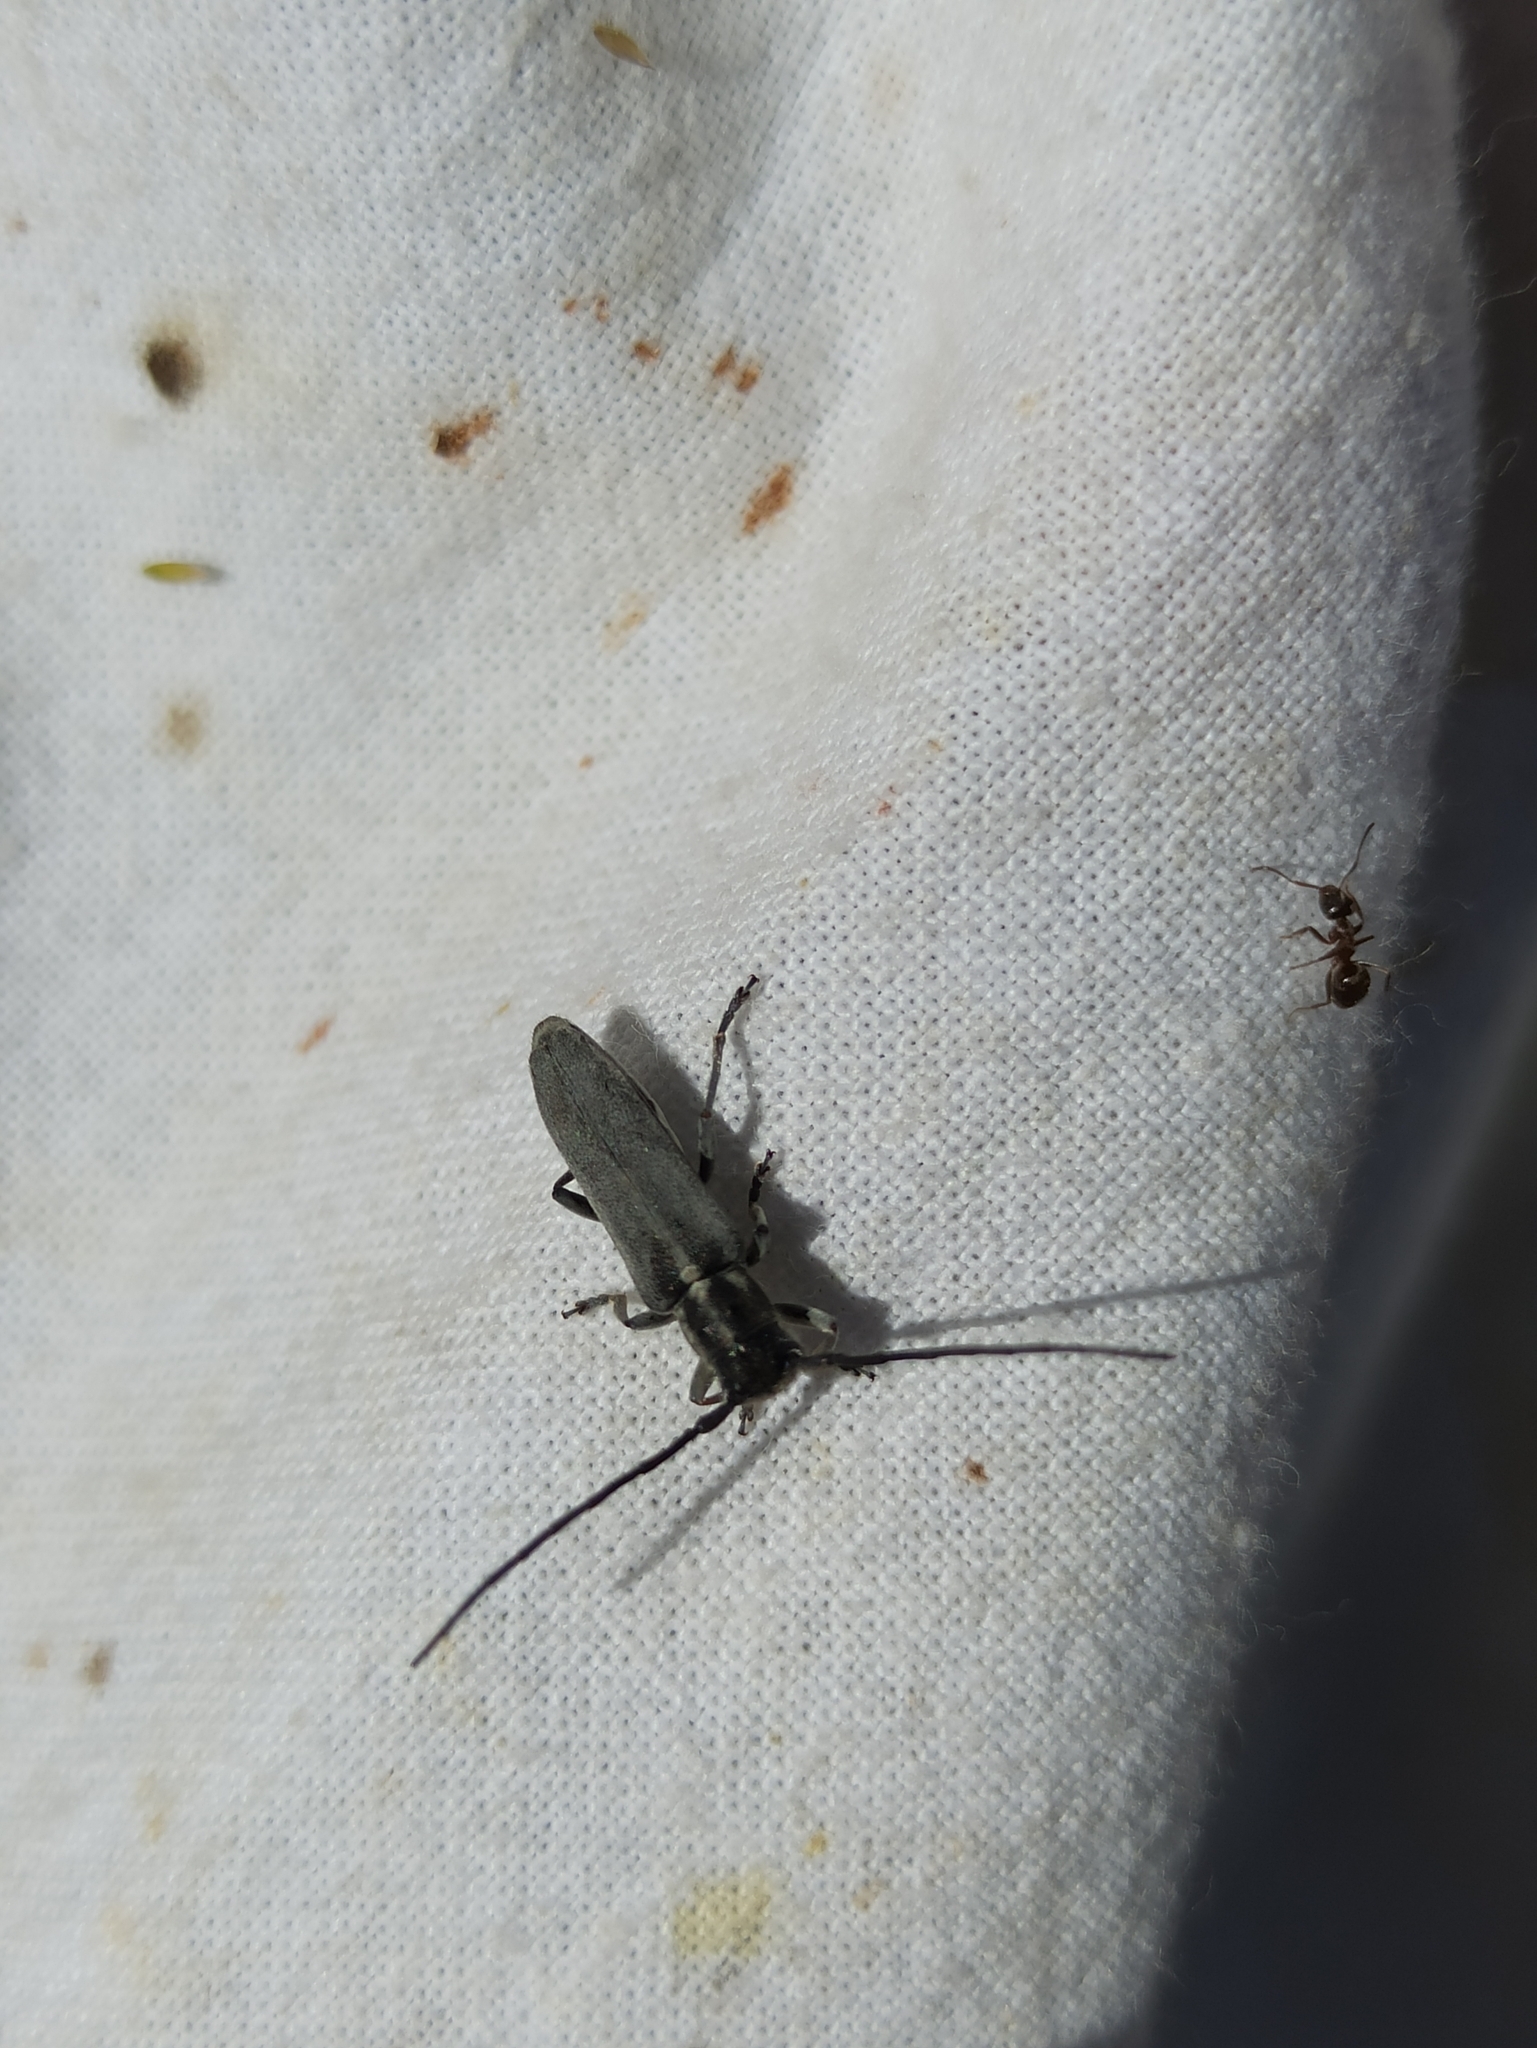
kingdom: Animalia
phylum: Arthropoda
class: Insecta
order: Coleoptera
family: Cerambycidae
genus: Phytoecia
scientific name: Phytoecia nigricornis
